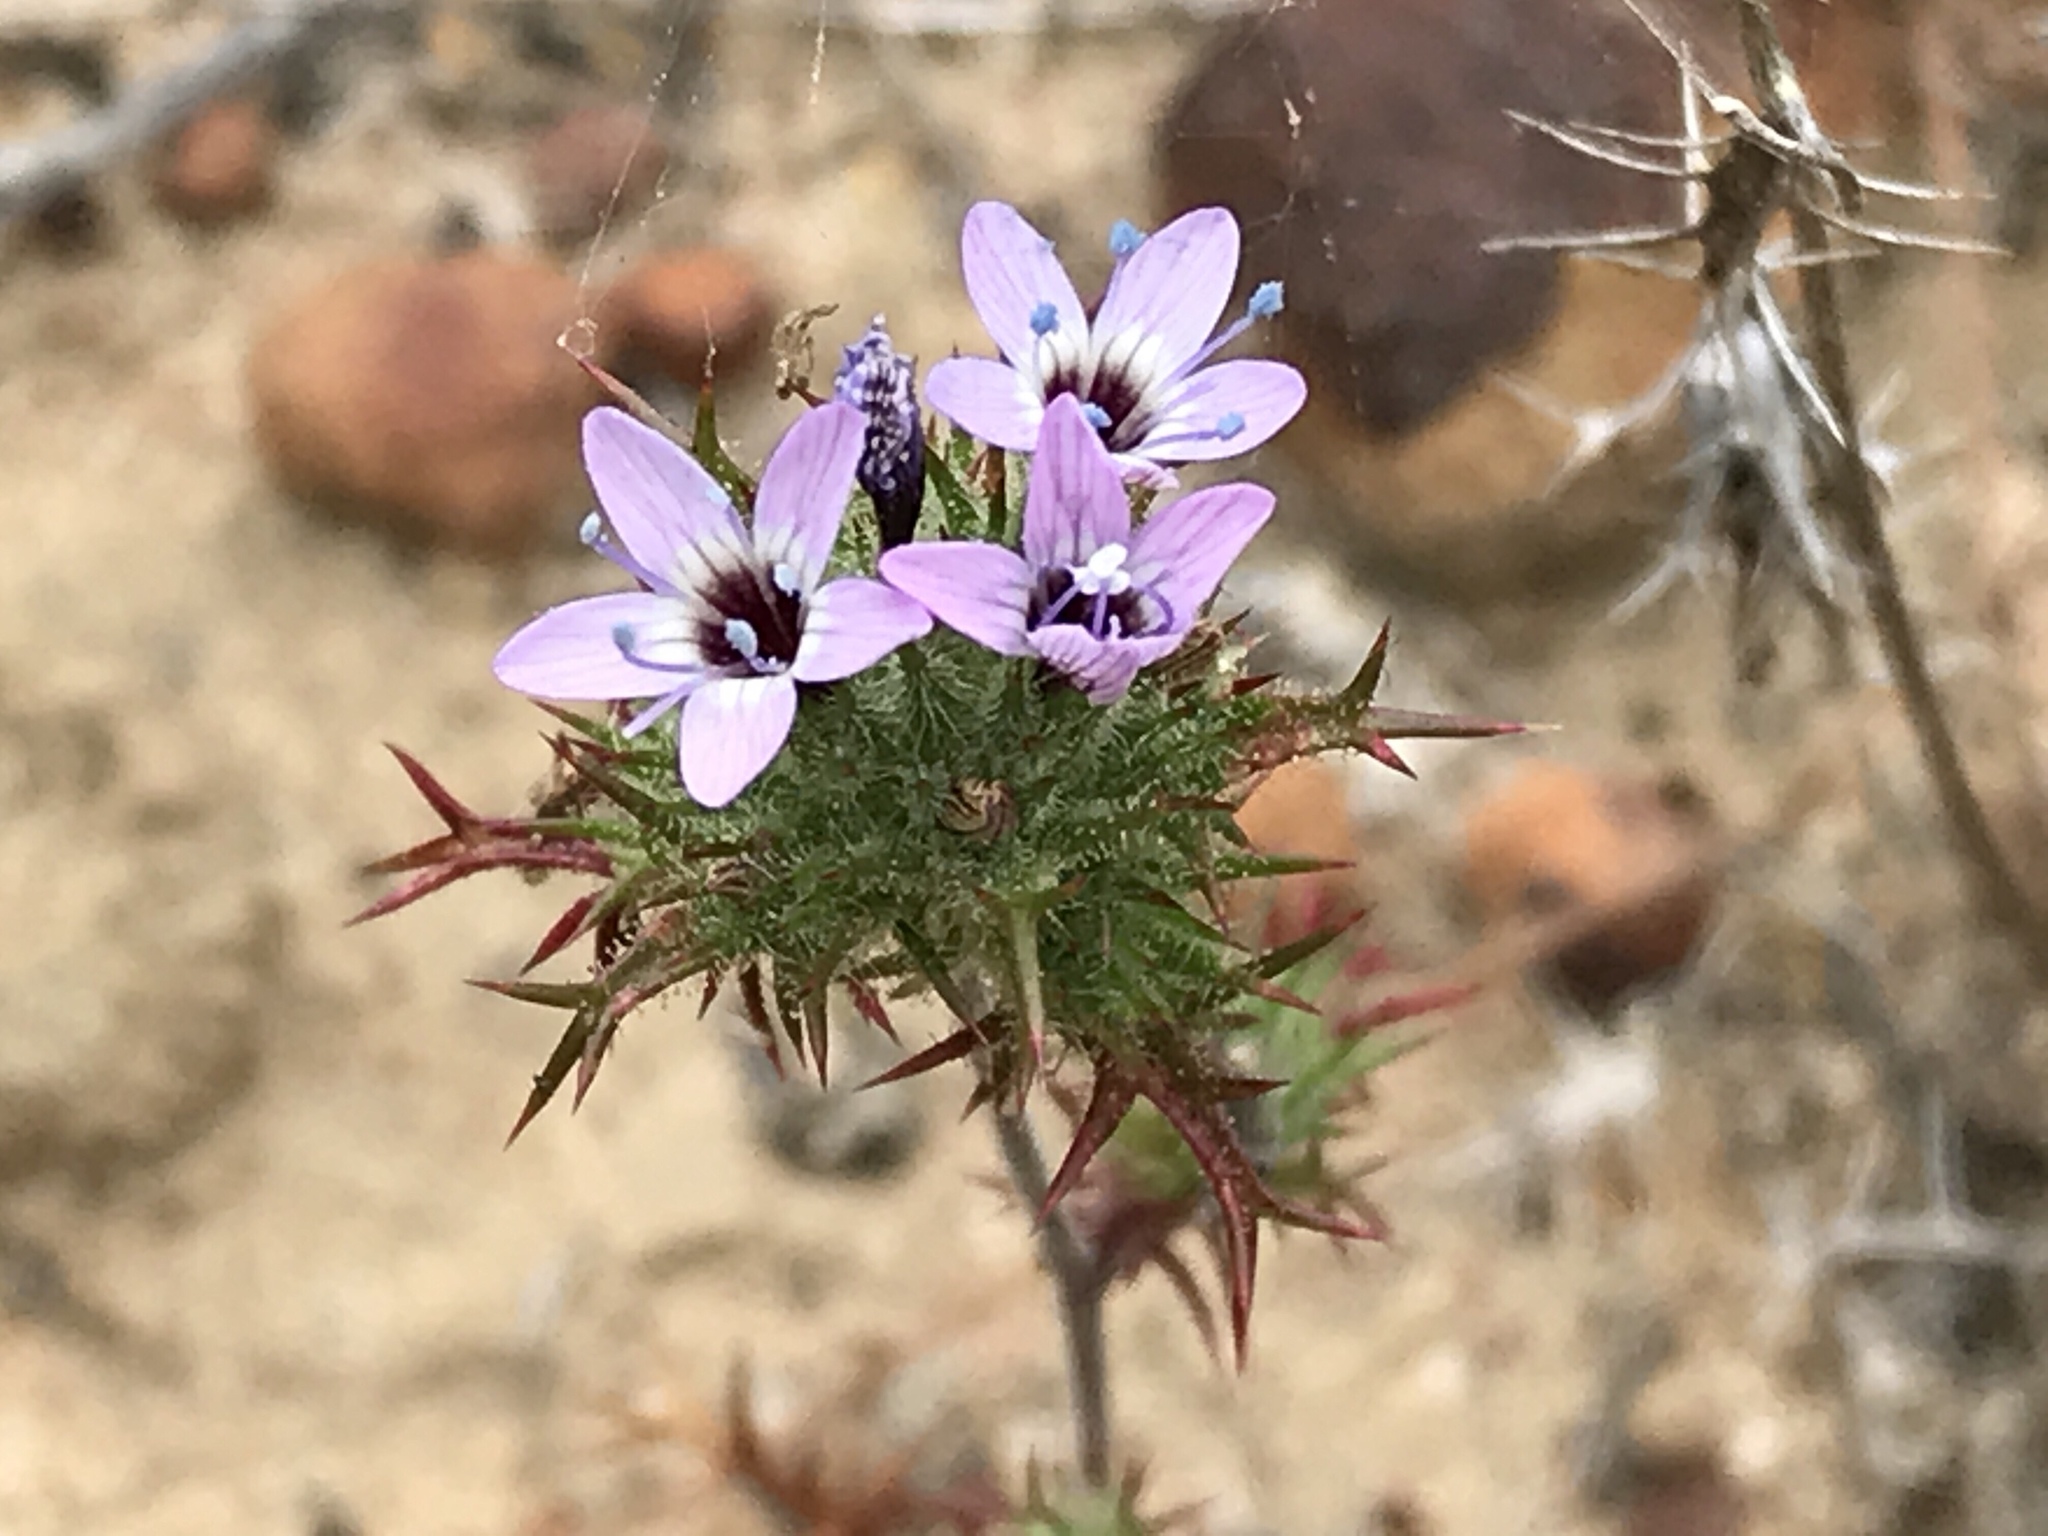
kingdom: Plantae
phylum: Tracheophyta
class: Magnoliopsida
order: Ericales
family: Polemoniaceae
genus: Navarretia
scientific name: Navarretia hamata
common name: Hooked navarretia
